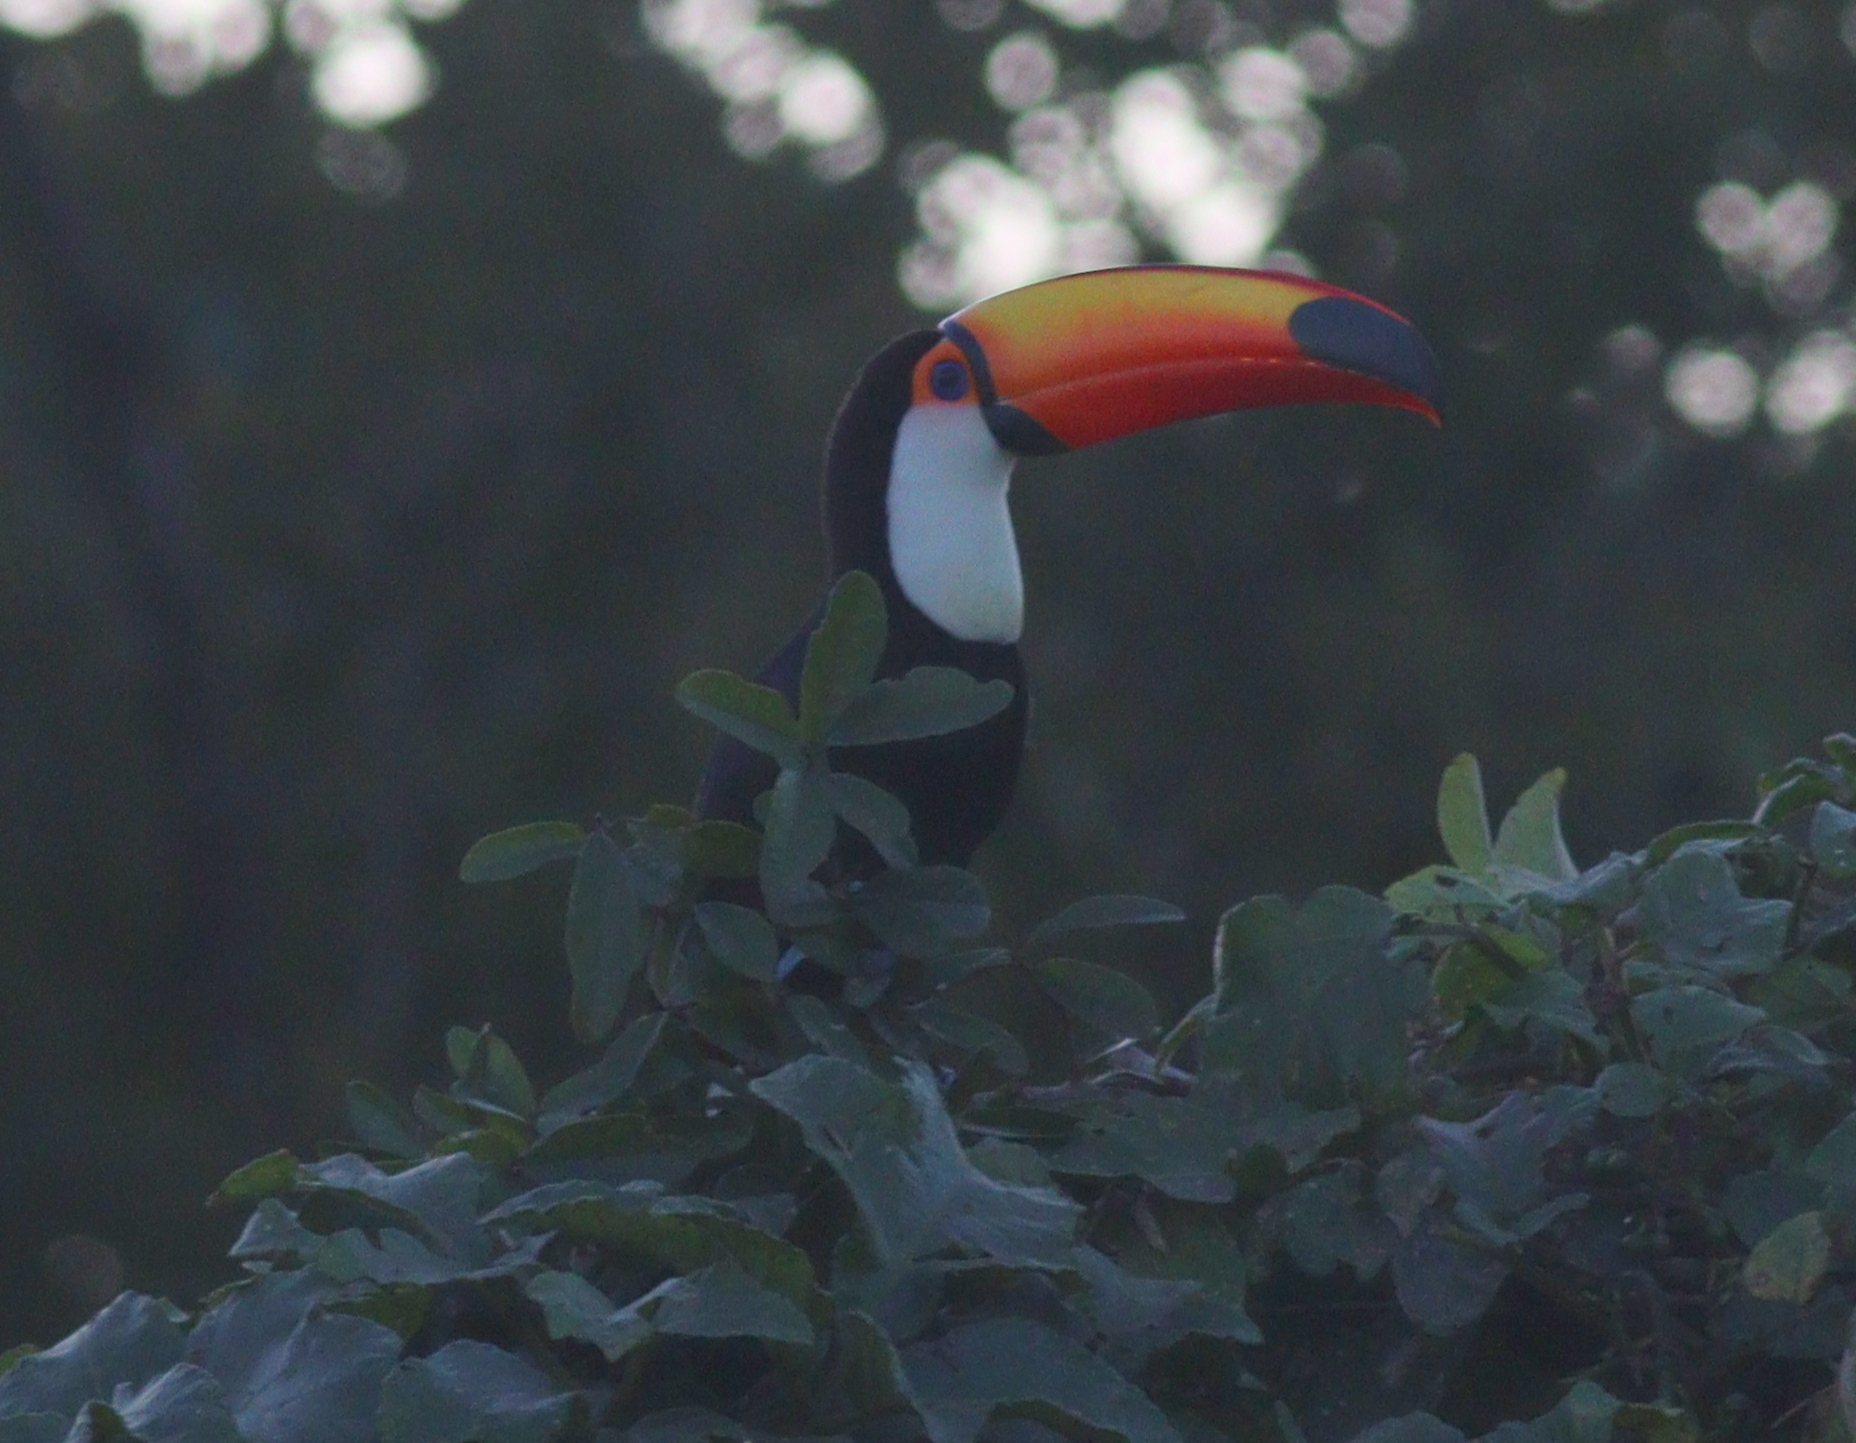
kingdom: Animalia
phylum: Chordata
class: Aves
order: Piciformes
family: Ramphastidae
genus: Ramphastos
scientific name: Ramphastos toco
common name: Toco toucan
